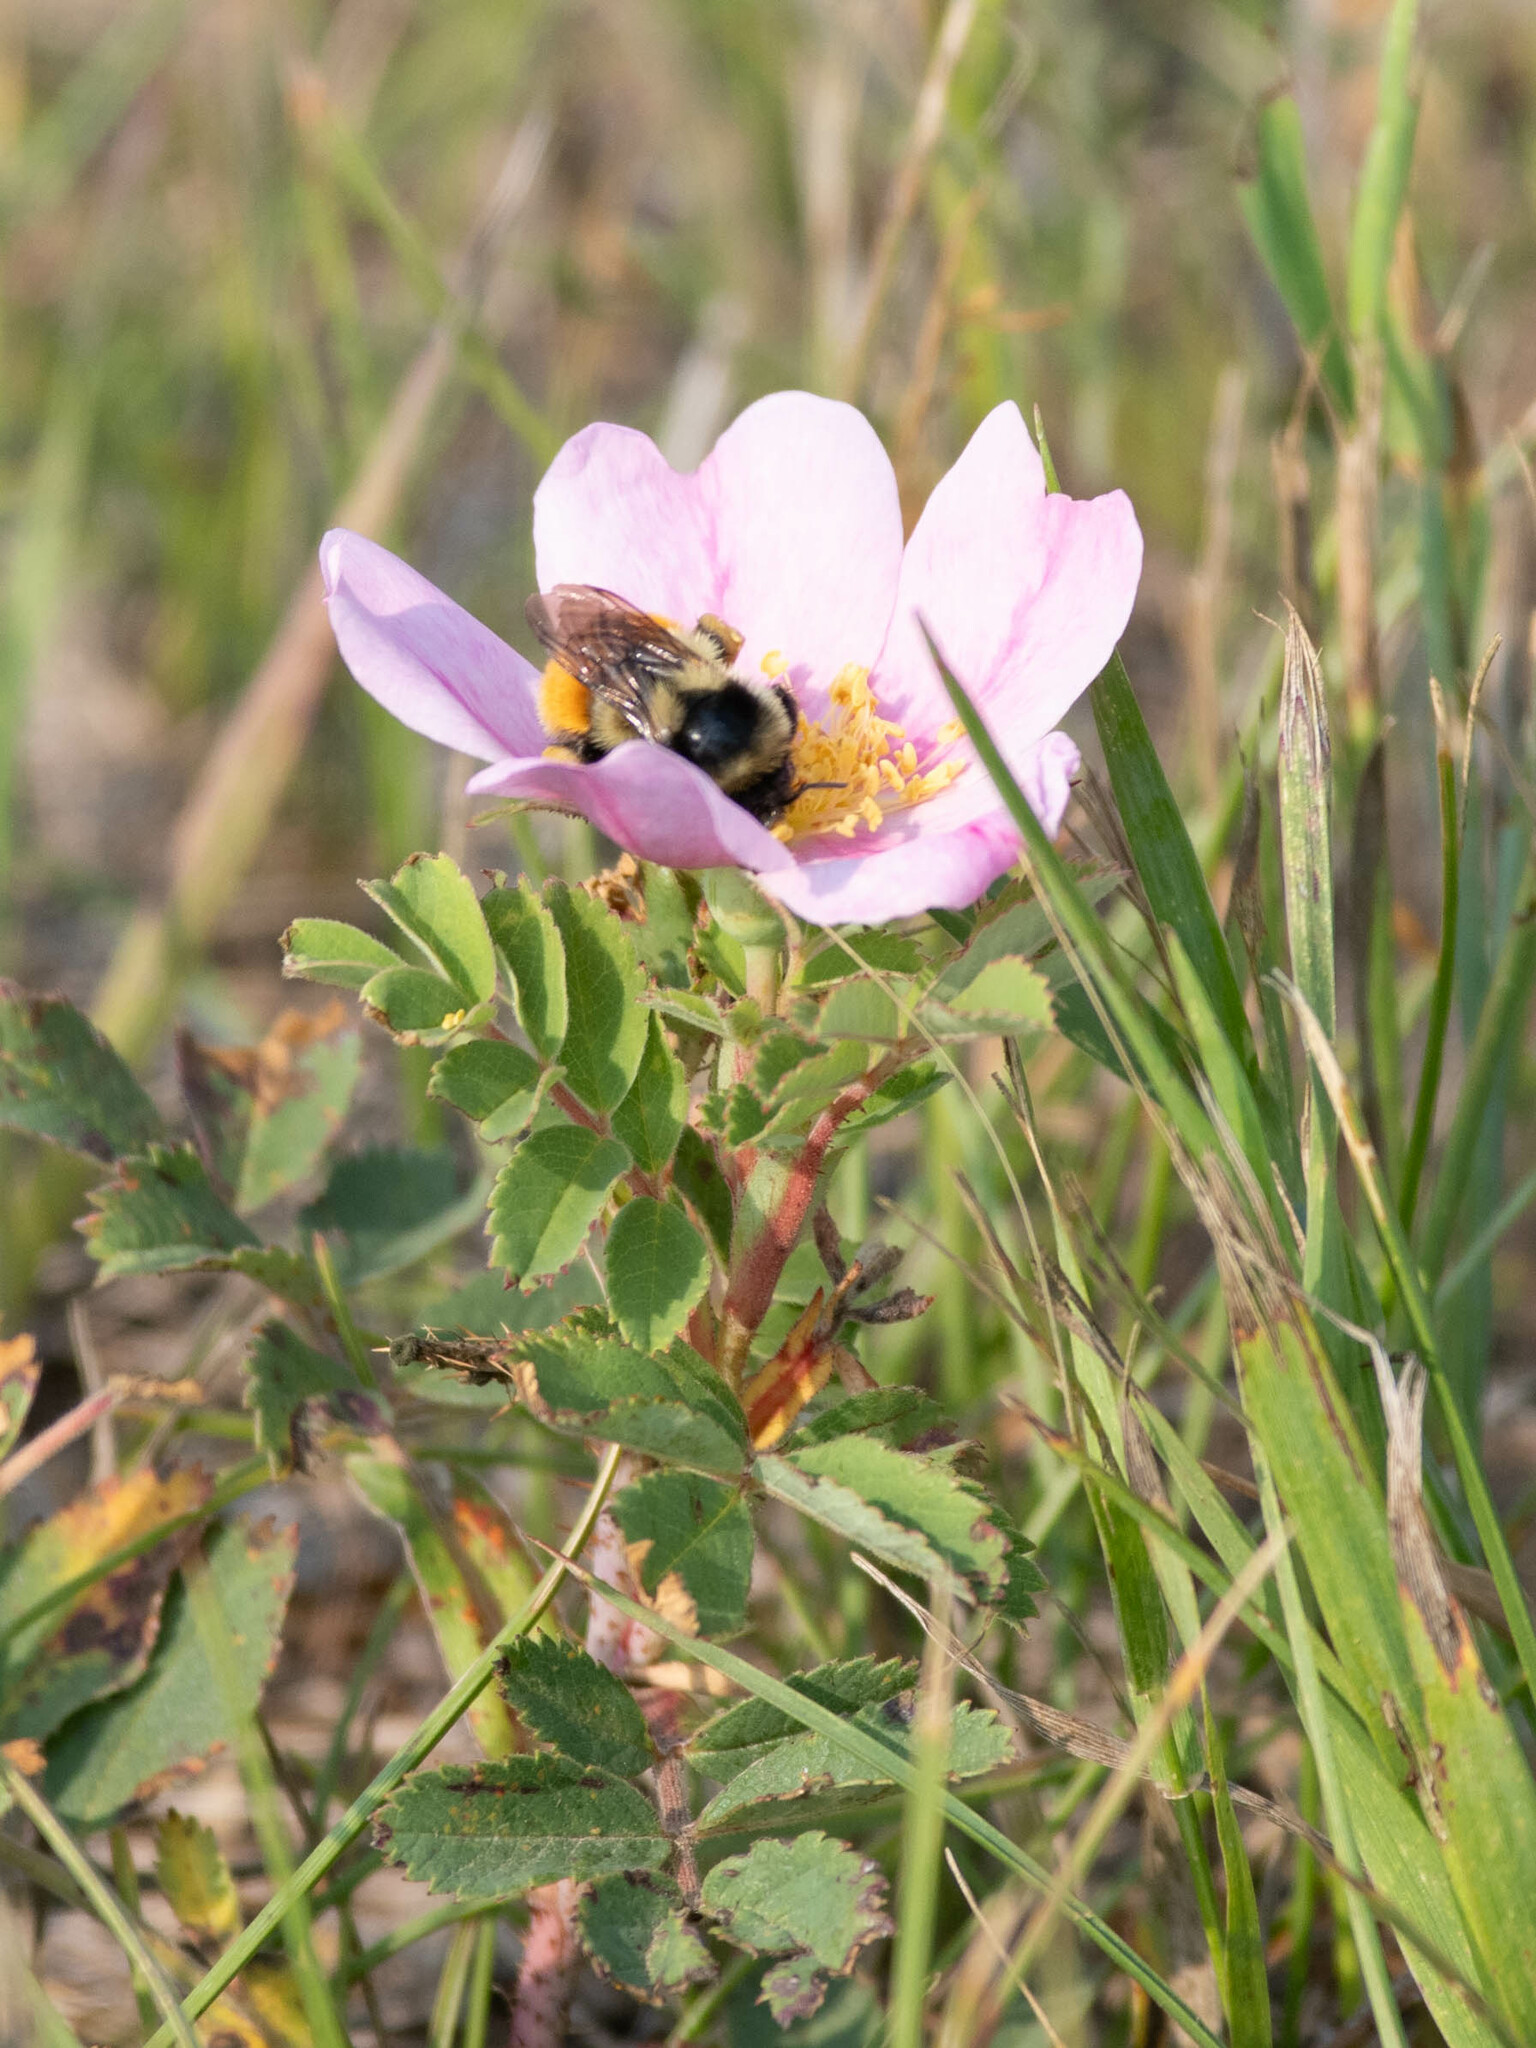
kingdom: Animalia
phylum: Arthropoda
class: Insecta
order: Hymenoptera
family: Apidae
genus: Bombus
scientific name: Bombus ternarius
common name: Tri-colored bumble bee
